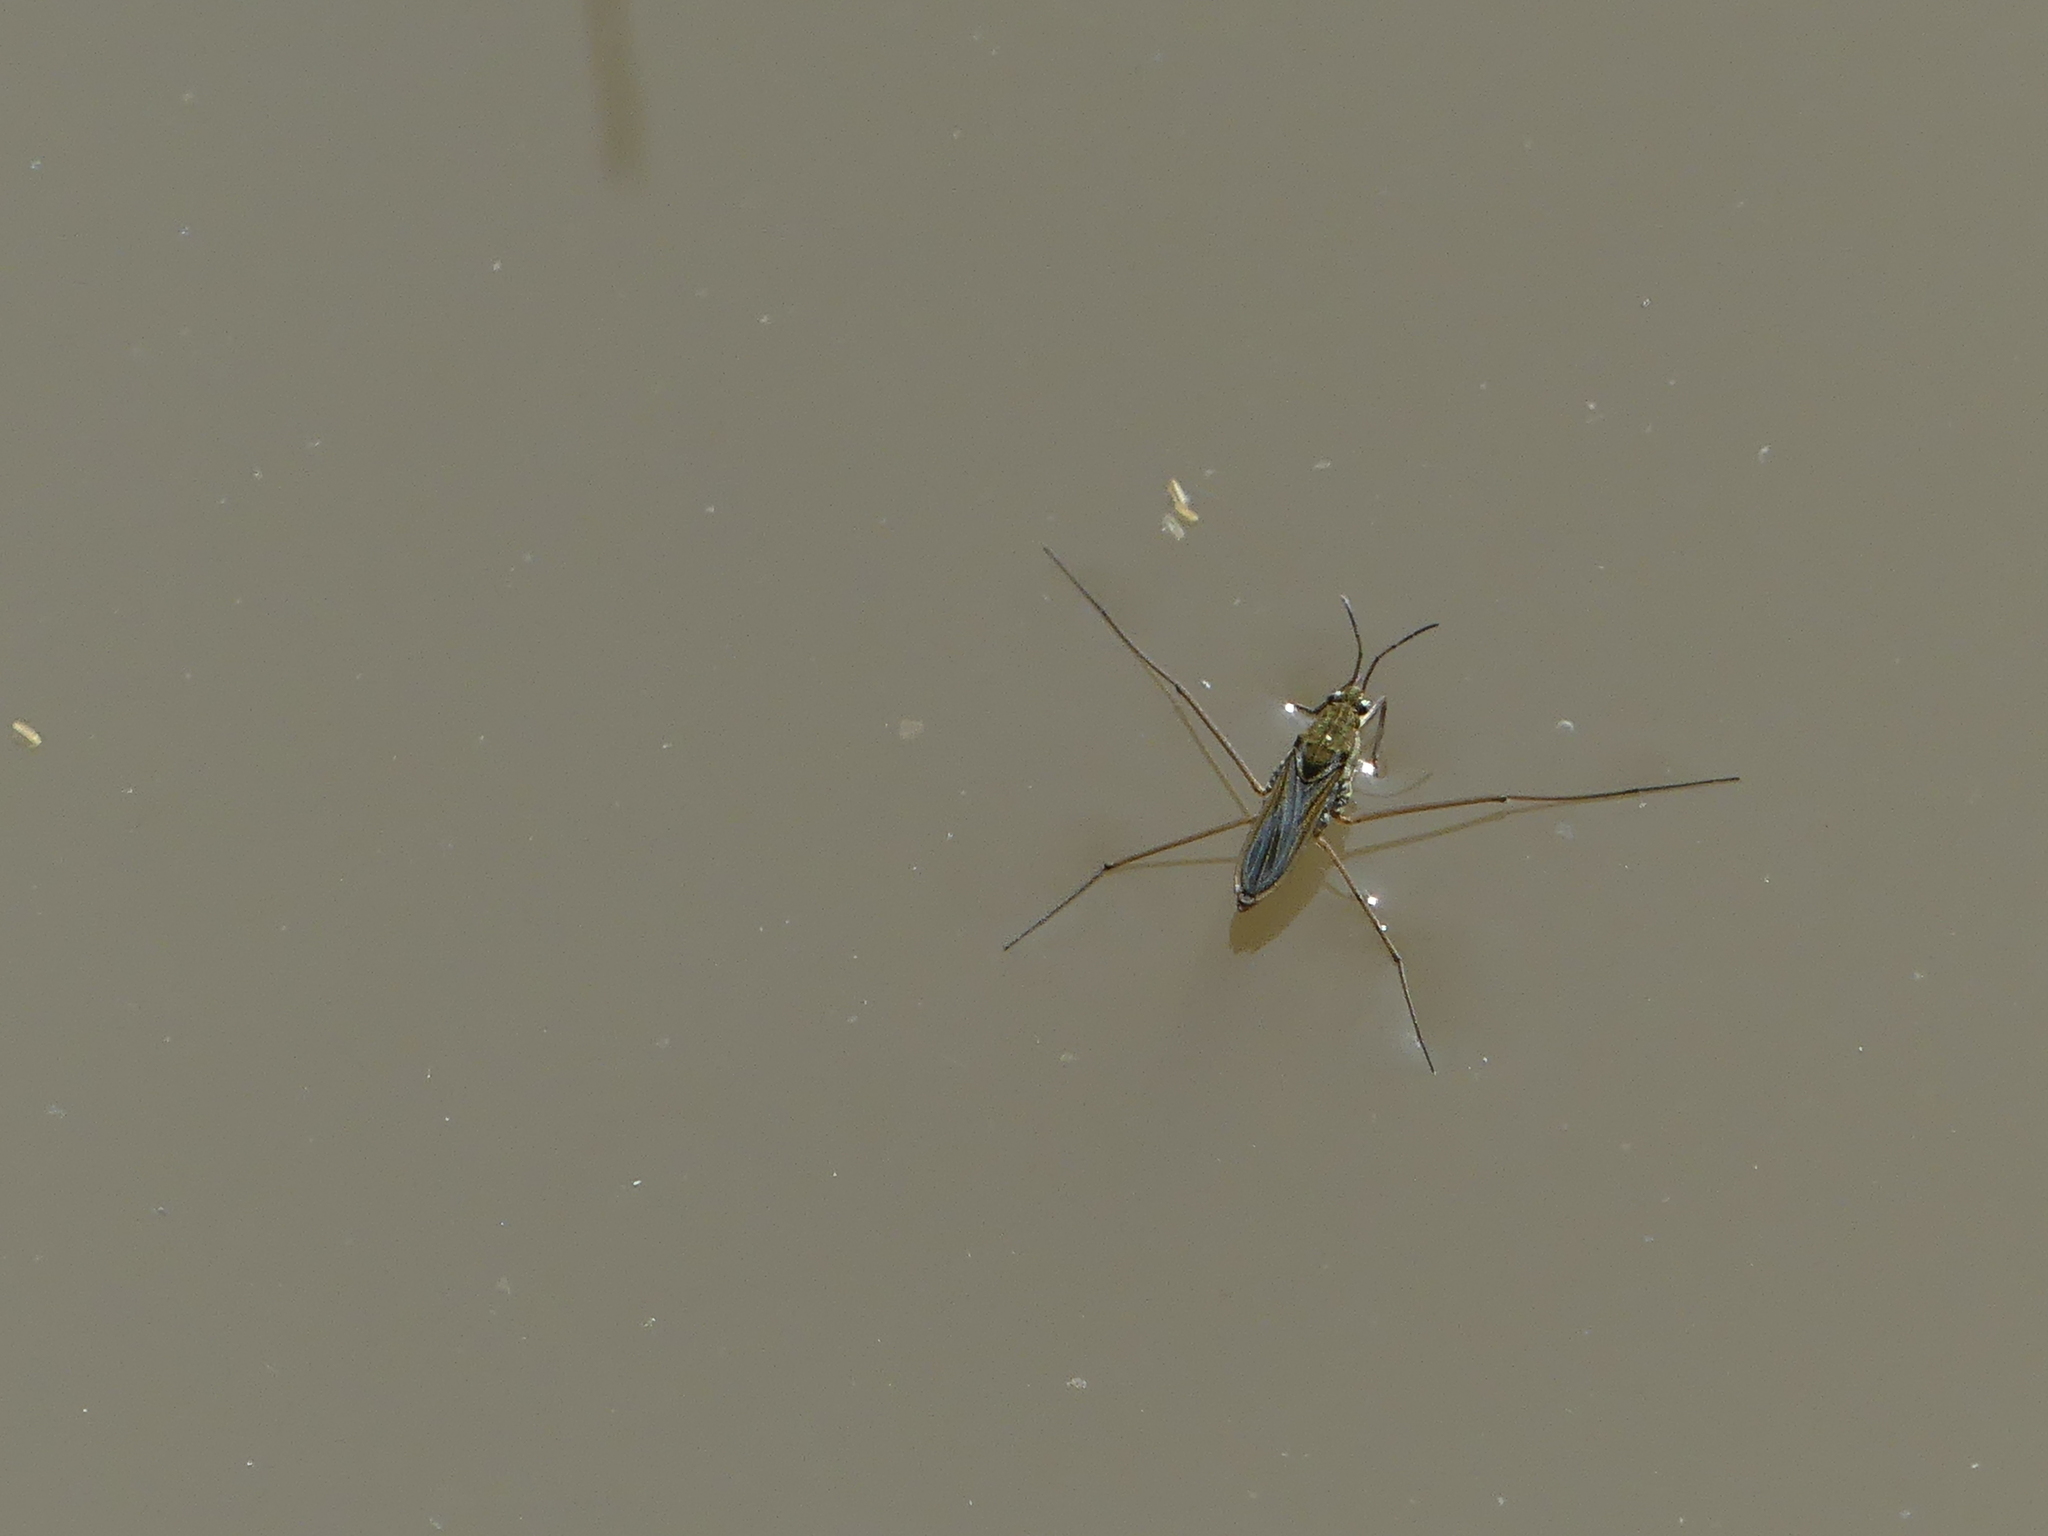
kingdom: Animalia
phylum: Arthropoda
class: Insecta
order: Hemiptera
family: Gerridae
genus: Gerris
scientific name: Gerris
